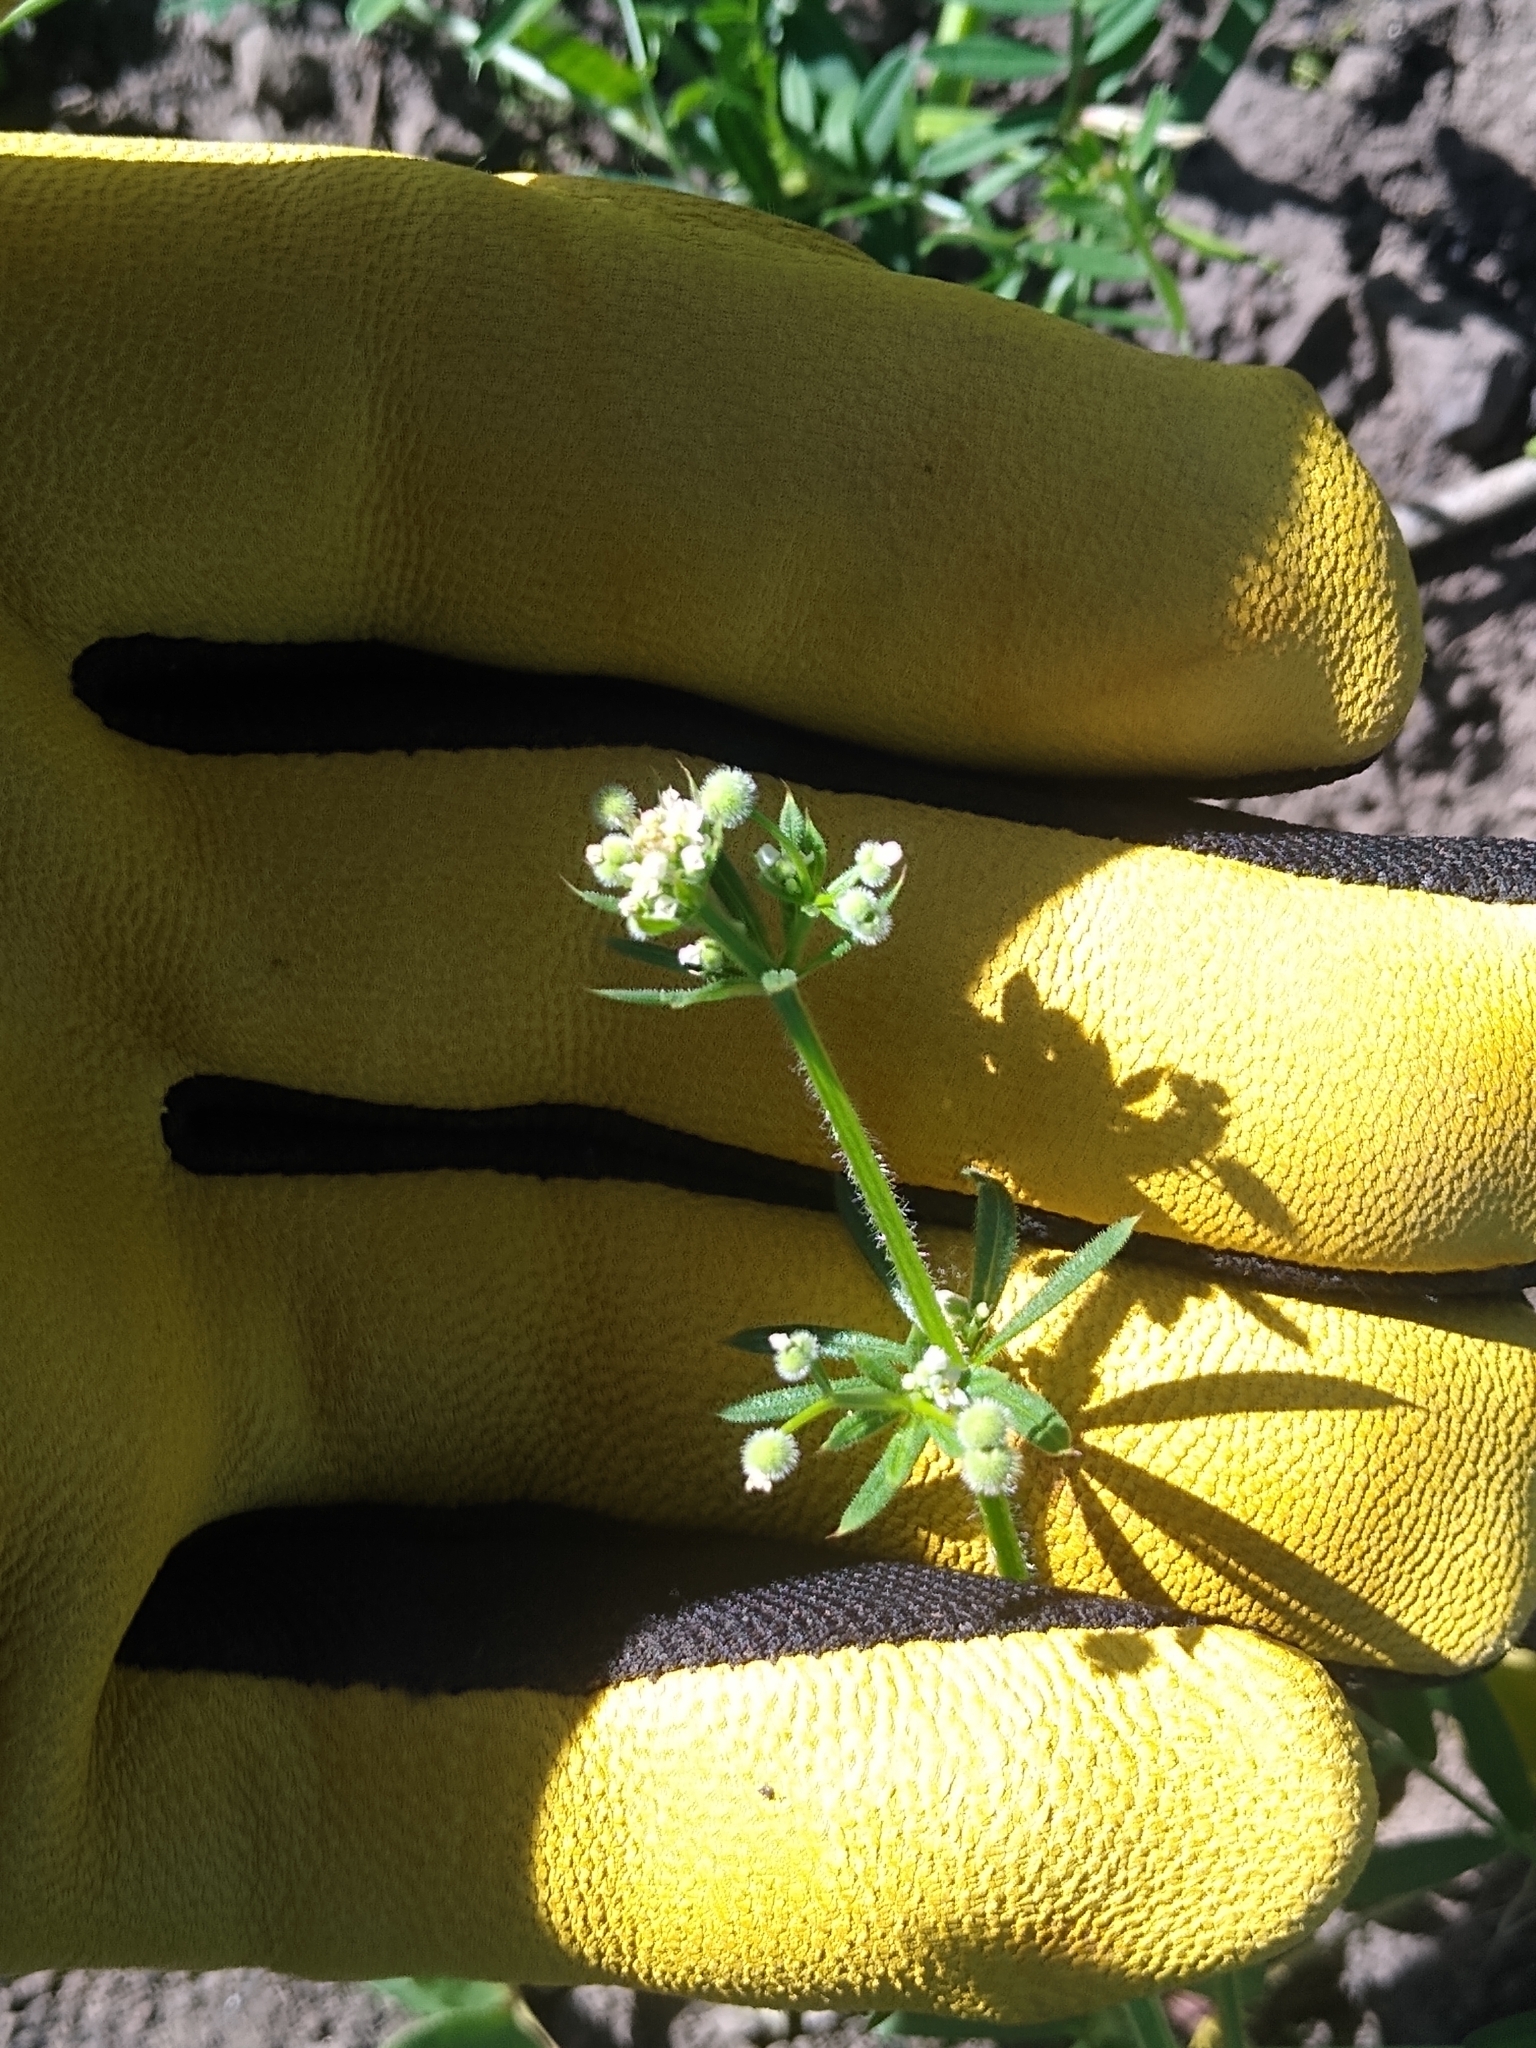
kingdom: Plantae
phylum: Tracheophyta
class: Magnoliopsida
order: Gentianales
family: Rubiaceae
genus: Galium
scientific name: Galium aparine
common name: Cleavers
